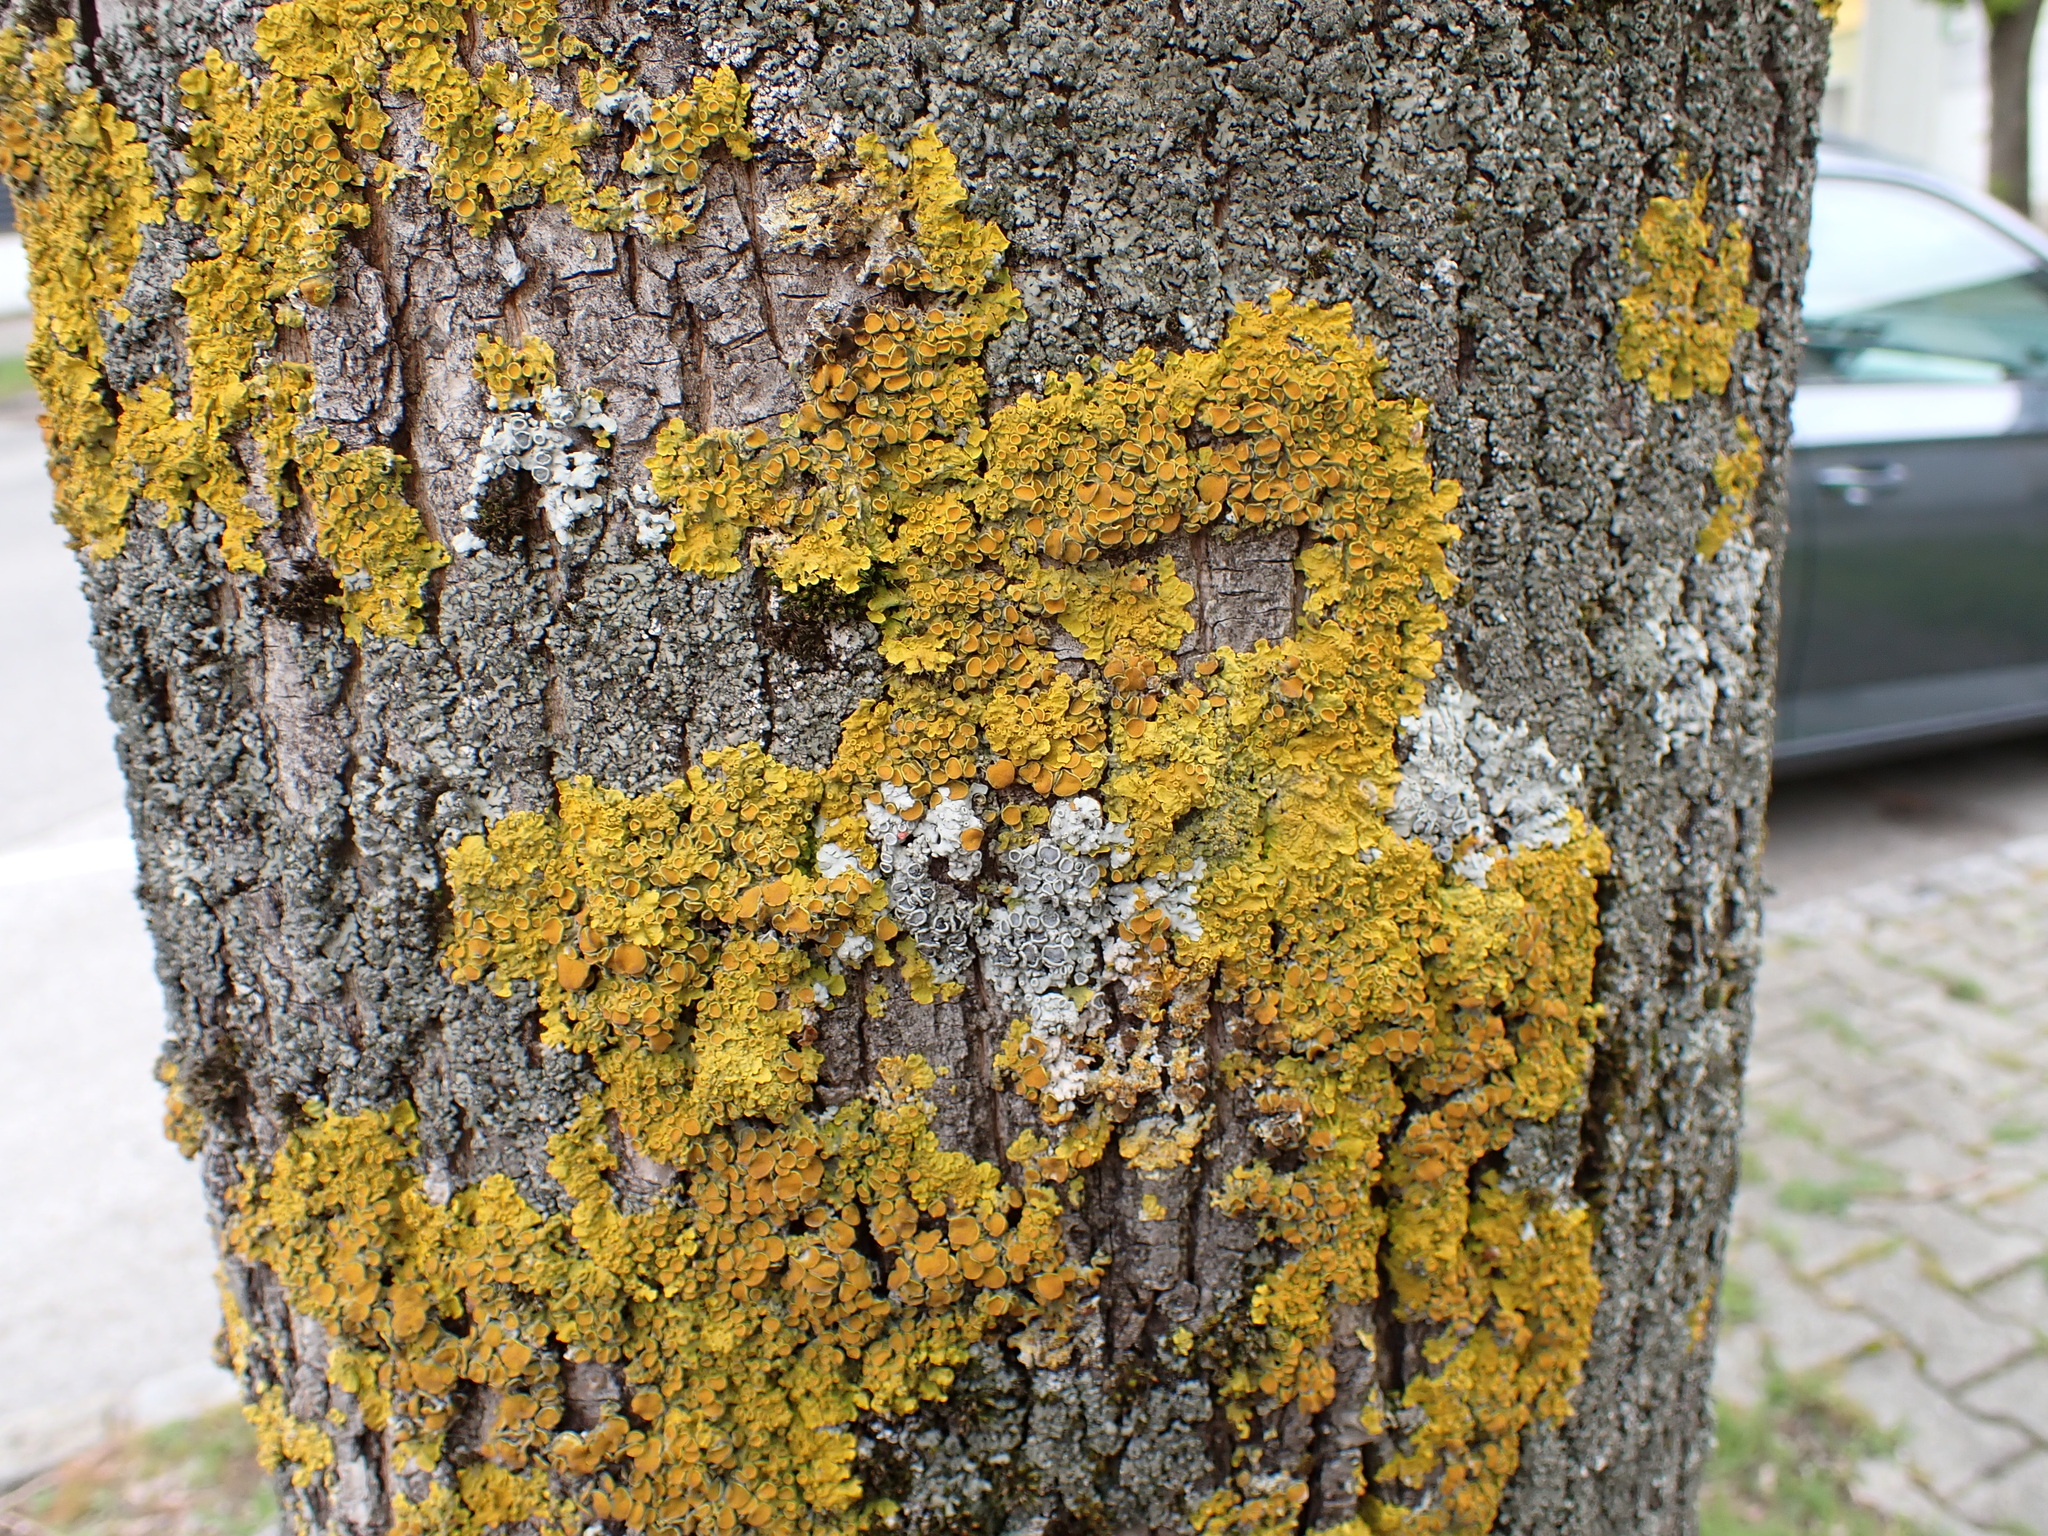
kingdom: Fungi
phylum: Ascomycota
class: Lecanoromycetes
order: Teloschistales
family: Teloschistaceae
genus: Xanthoria
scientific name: Xanthoria parietina
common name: Common orange lichen
